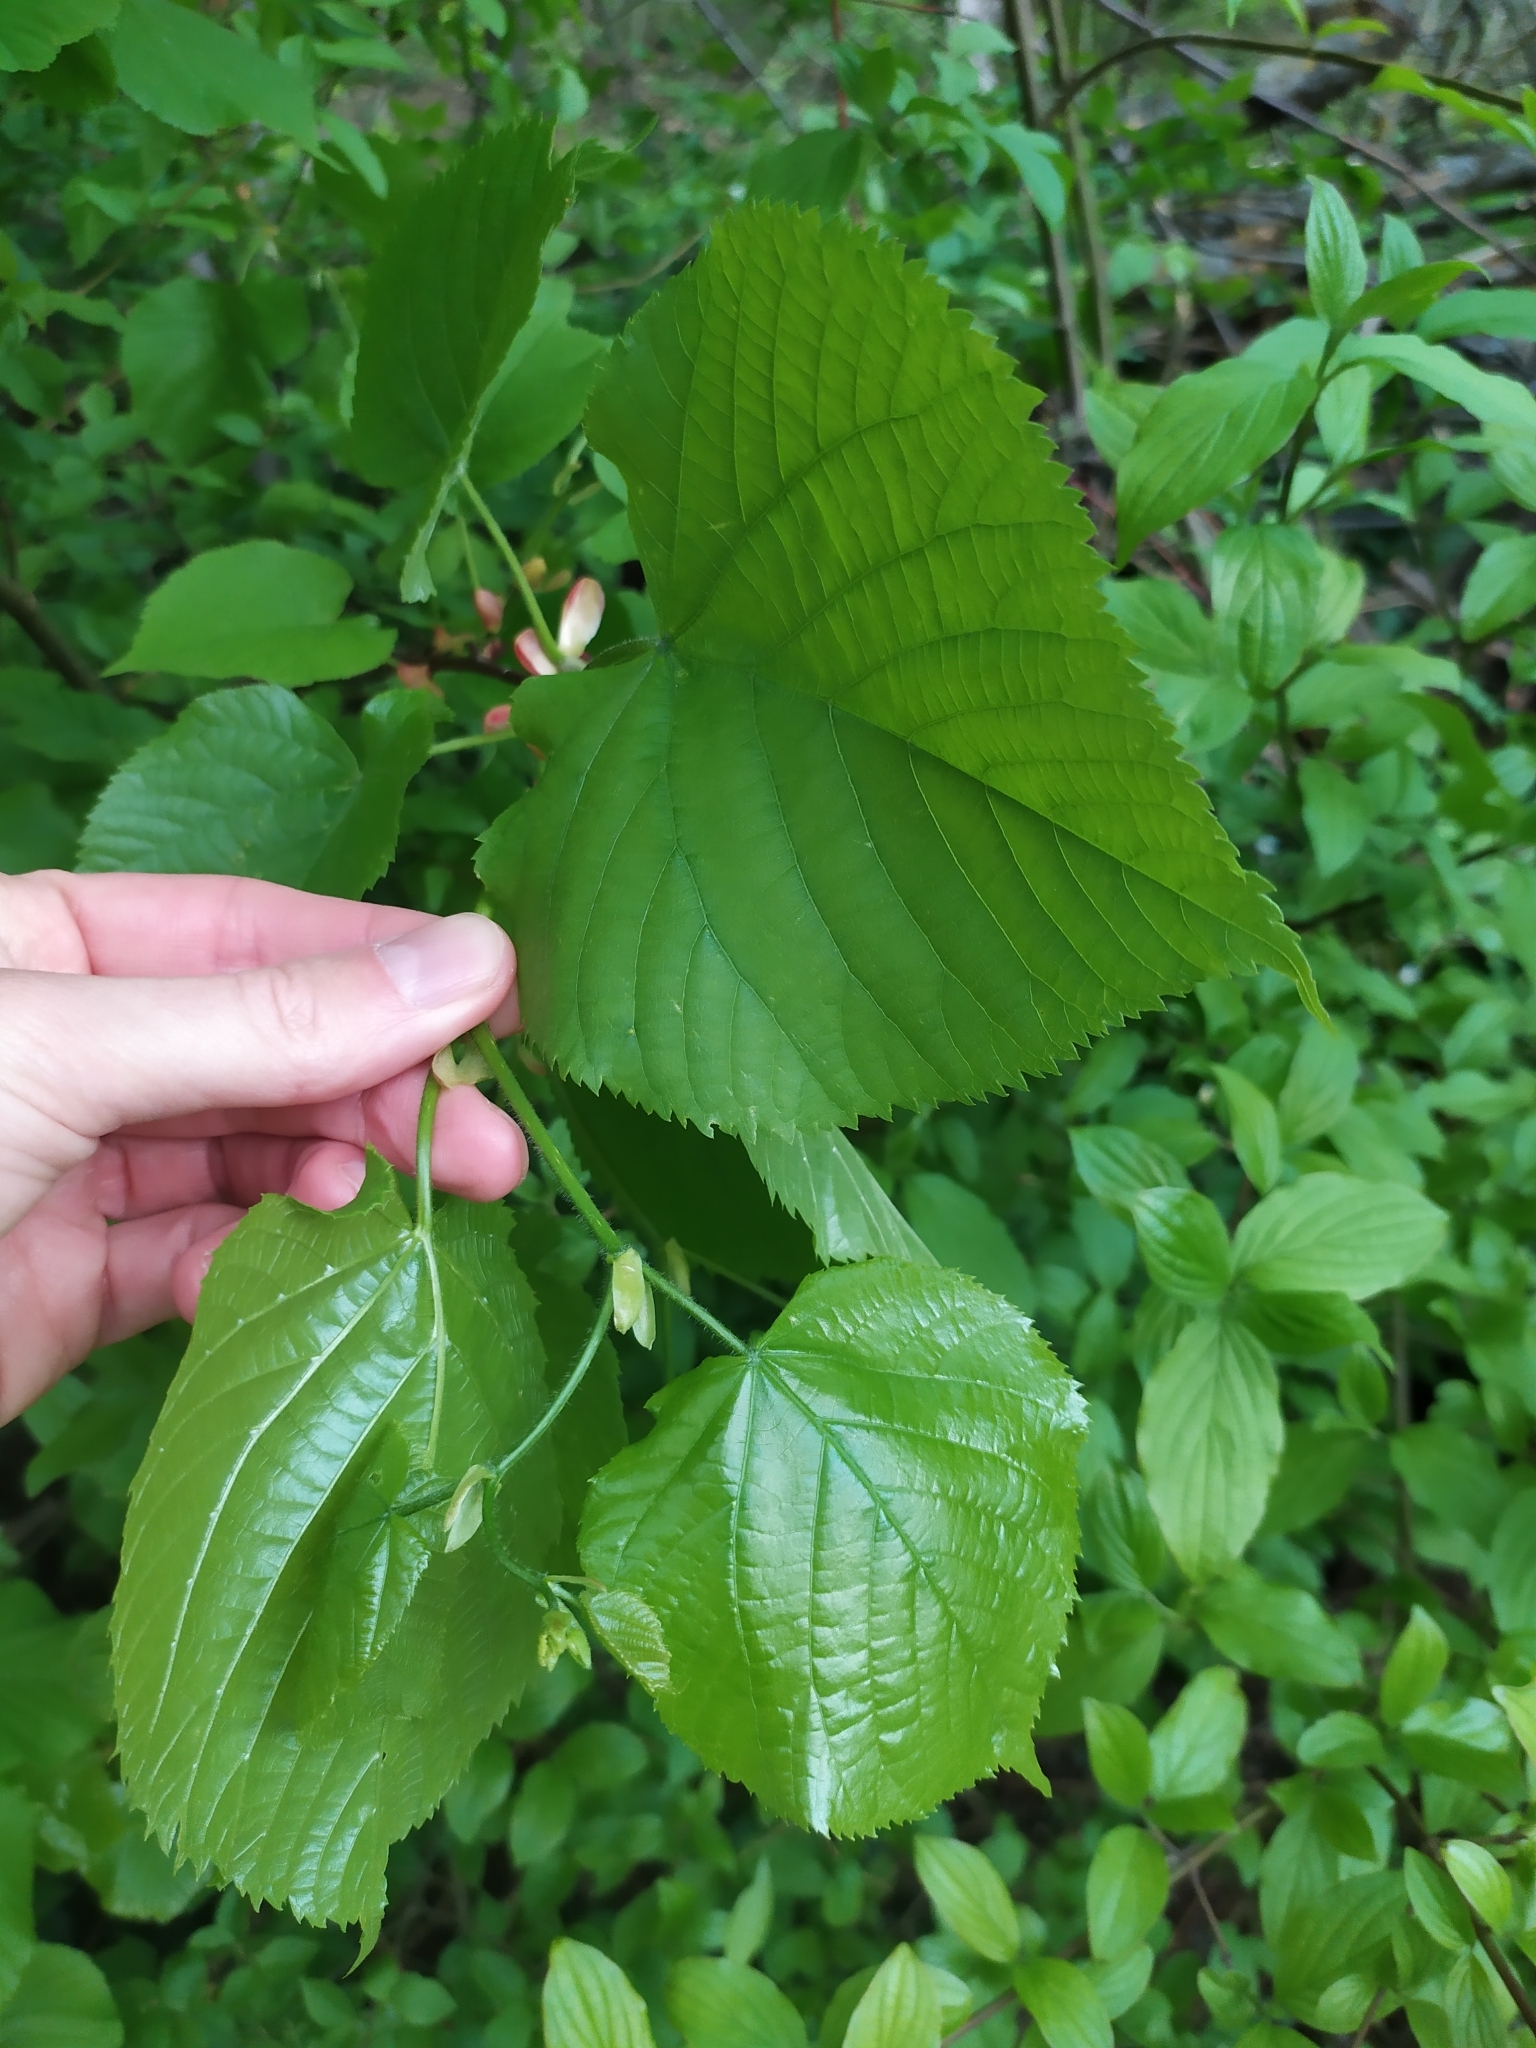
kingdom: Plantae
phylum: Tracheophyta
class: Magnoliopsida
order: Malvales
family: Malvaceae
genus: Tilia
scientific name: Tilia platyphyllos
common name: Large-leaved lime
